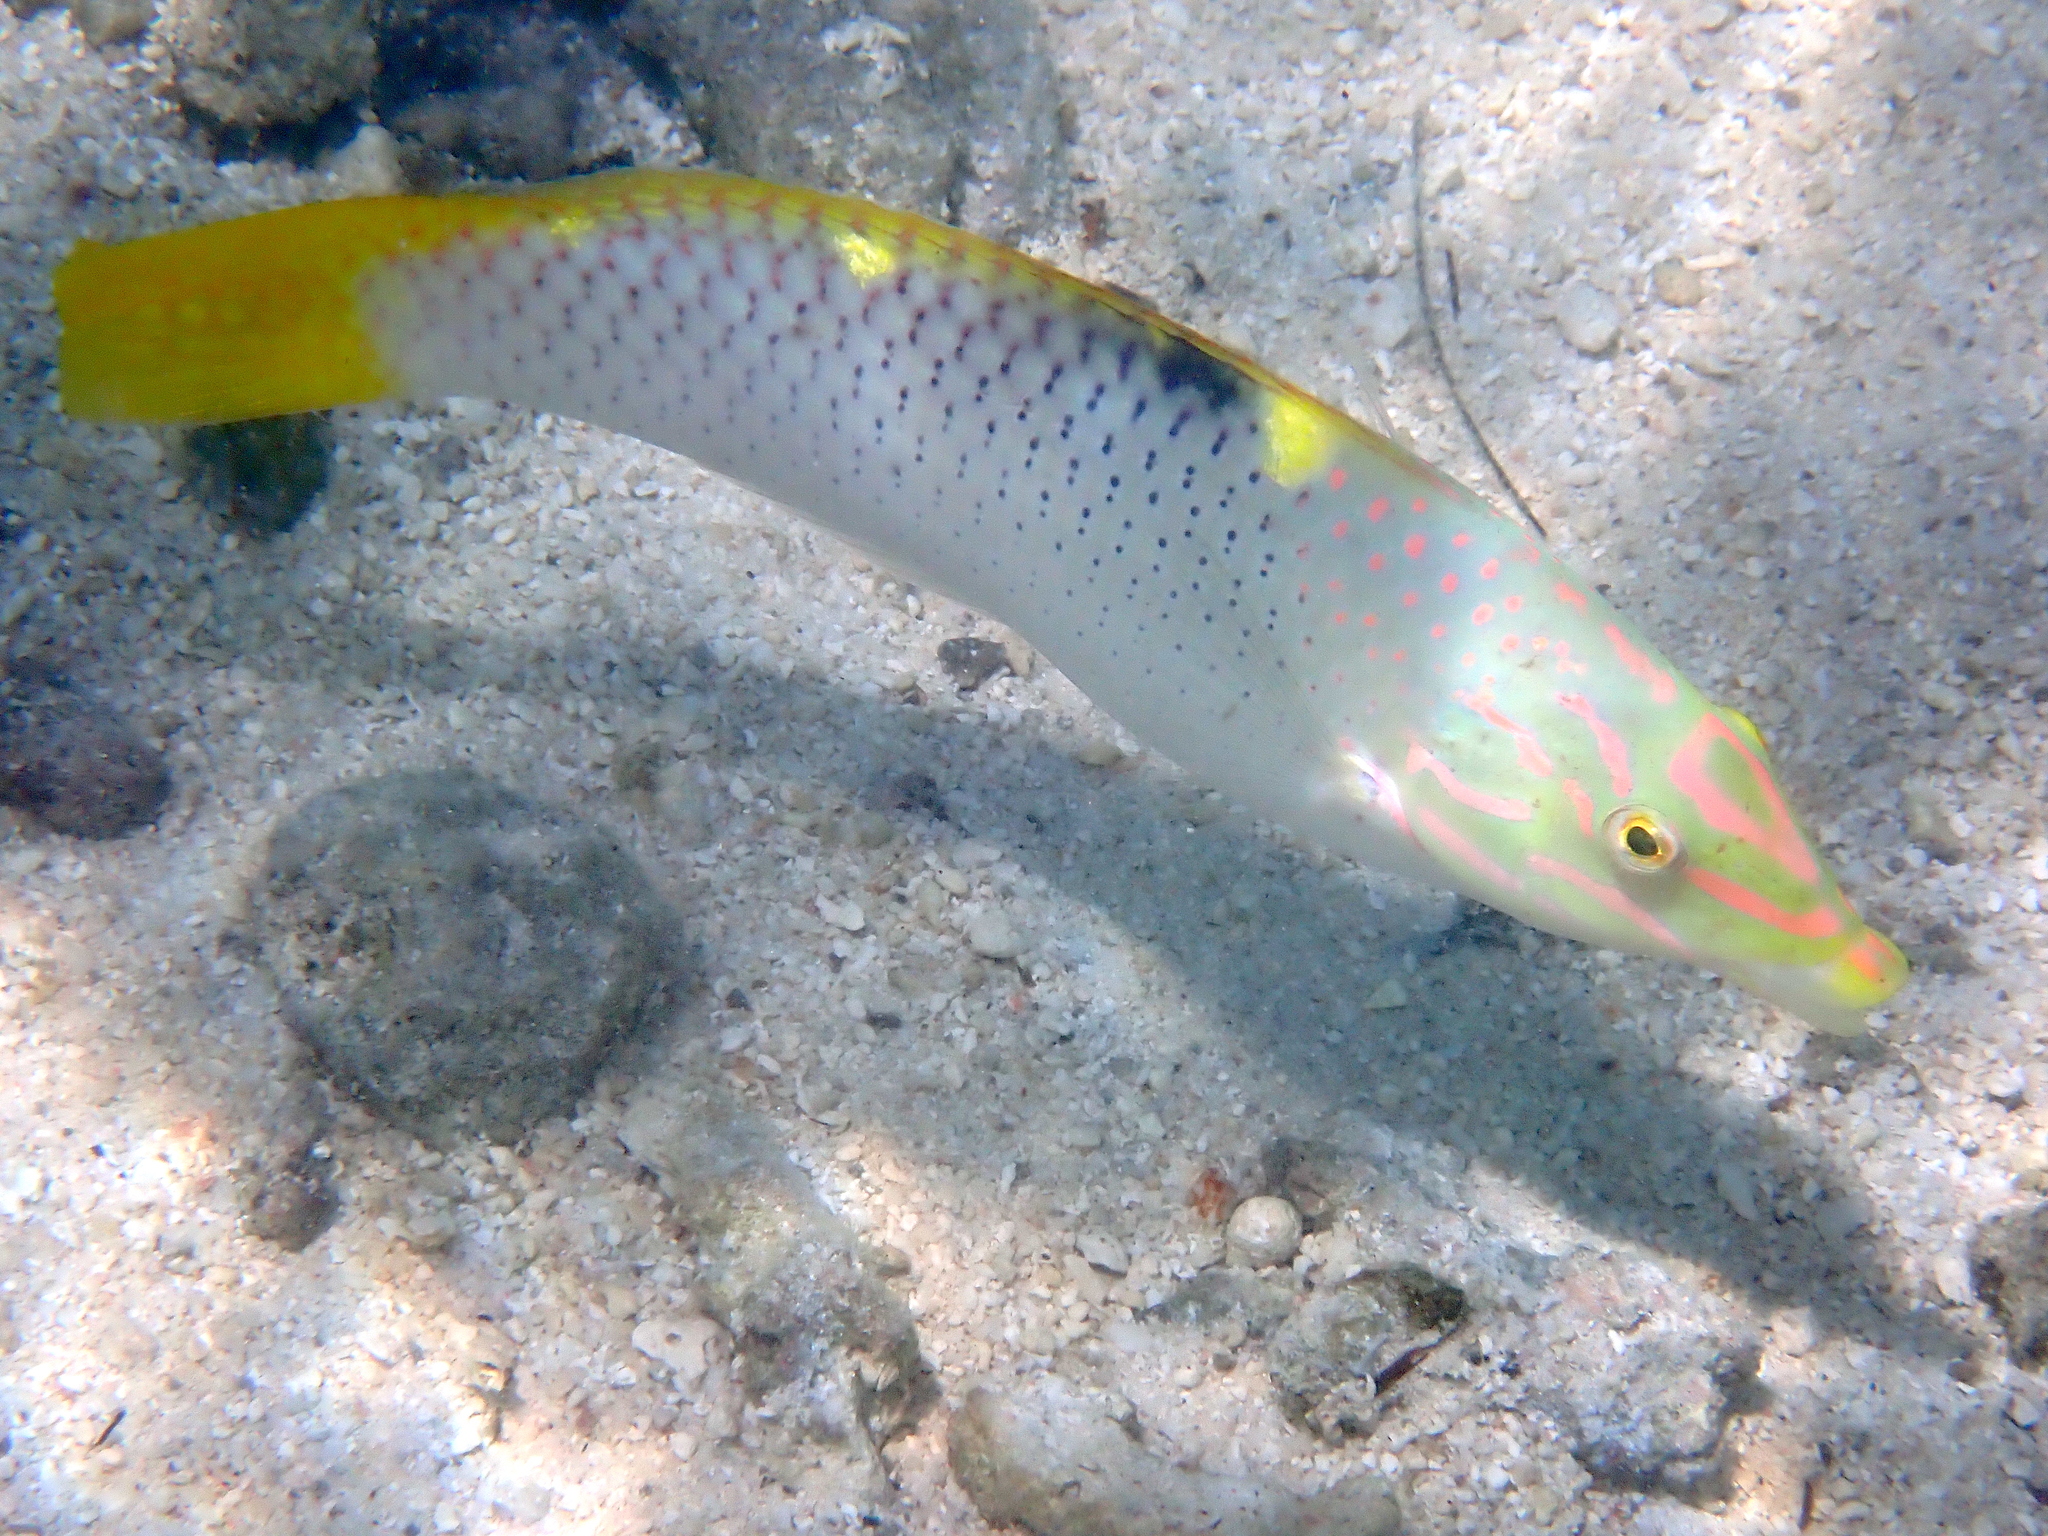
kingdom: Animalia
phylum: Chordata
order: Perciformes
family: Labridae
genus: Halichoeres
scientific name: Halichoeres hortulanus
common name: Checkerboard wrasse
